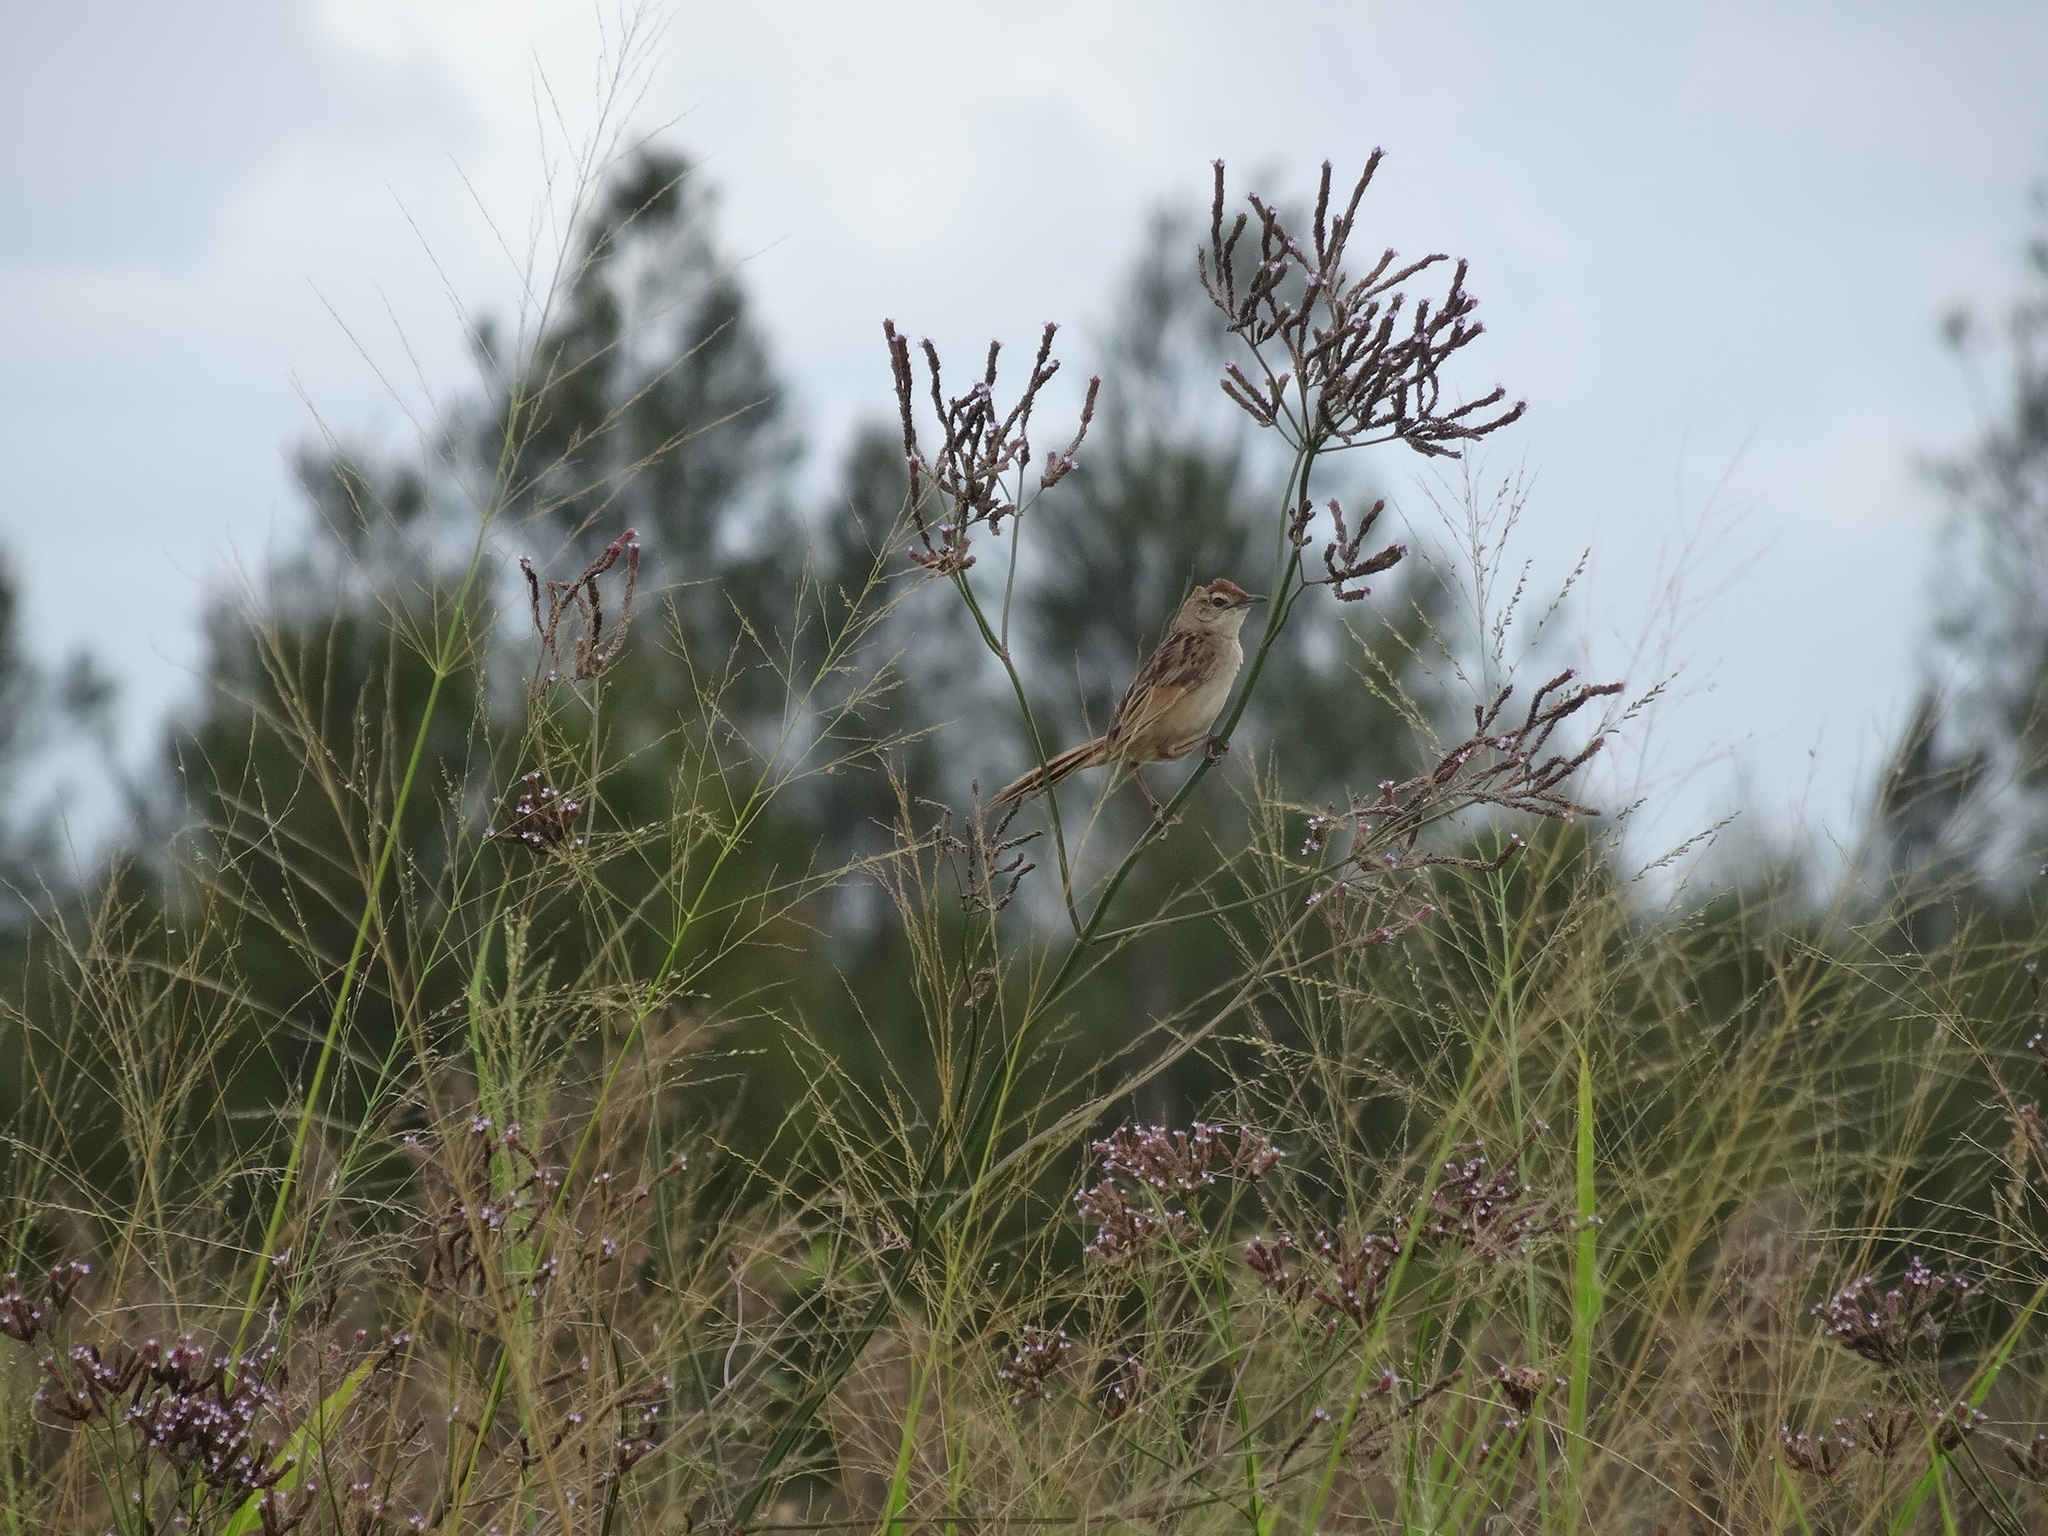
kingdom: Animalia
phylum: Chordata
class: Aves
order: Passeriformes
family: Locustellidae
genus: Megalurus
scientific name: Megalurus timoriensis
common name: Tawny grassbird
